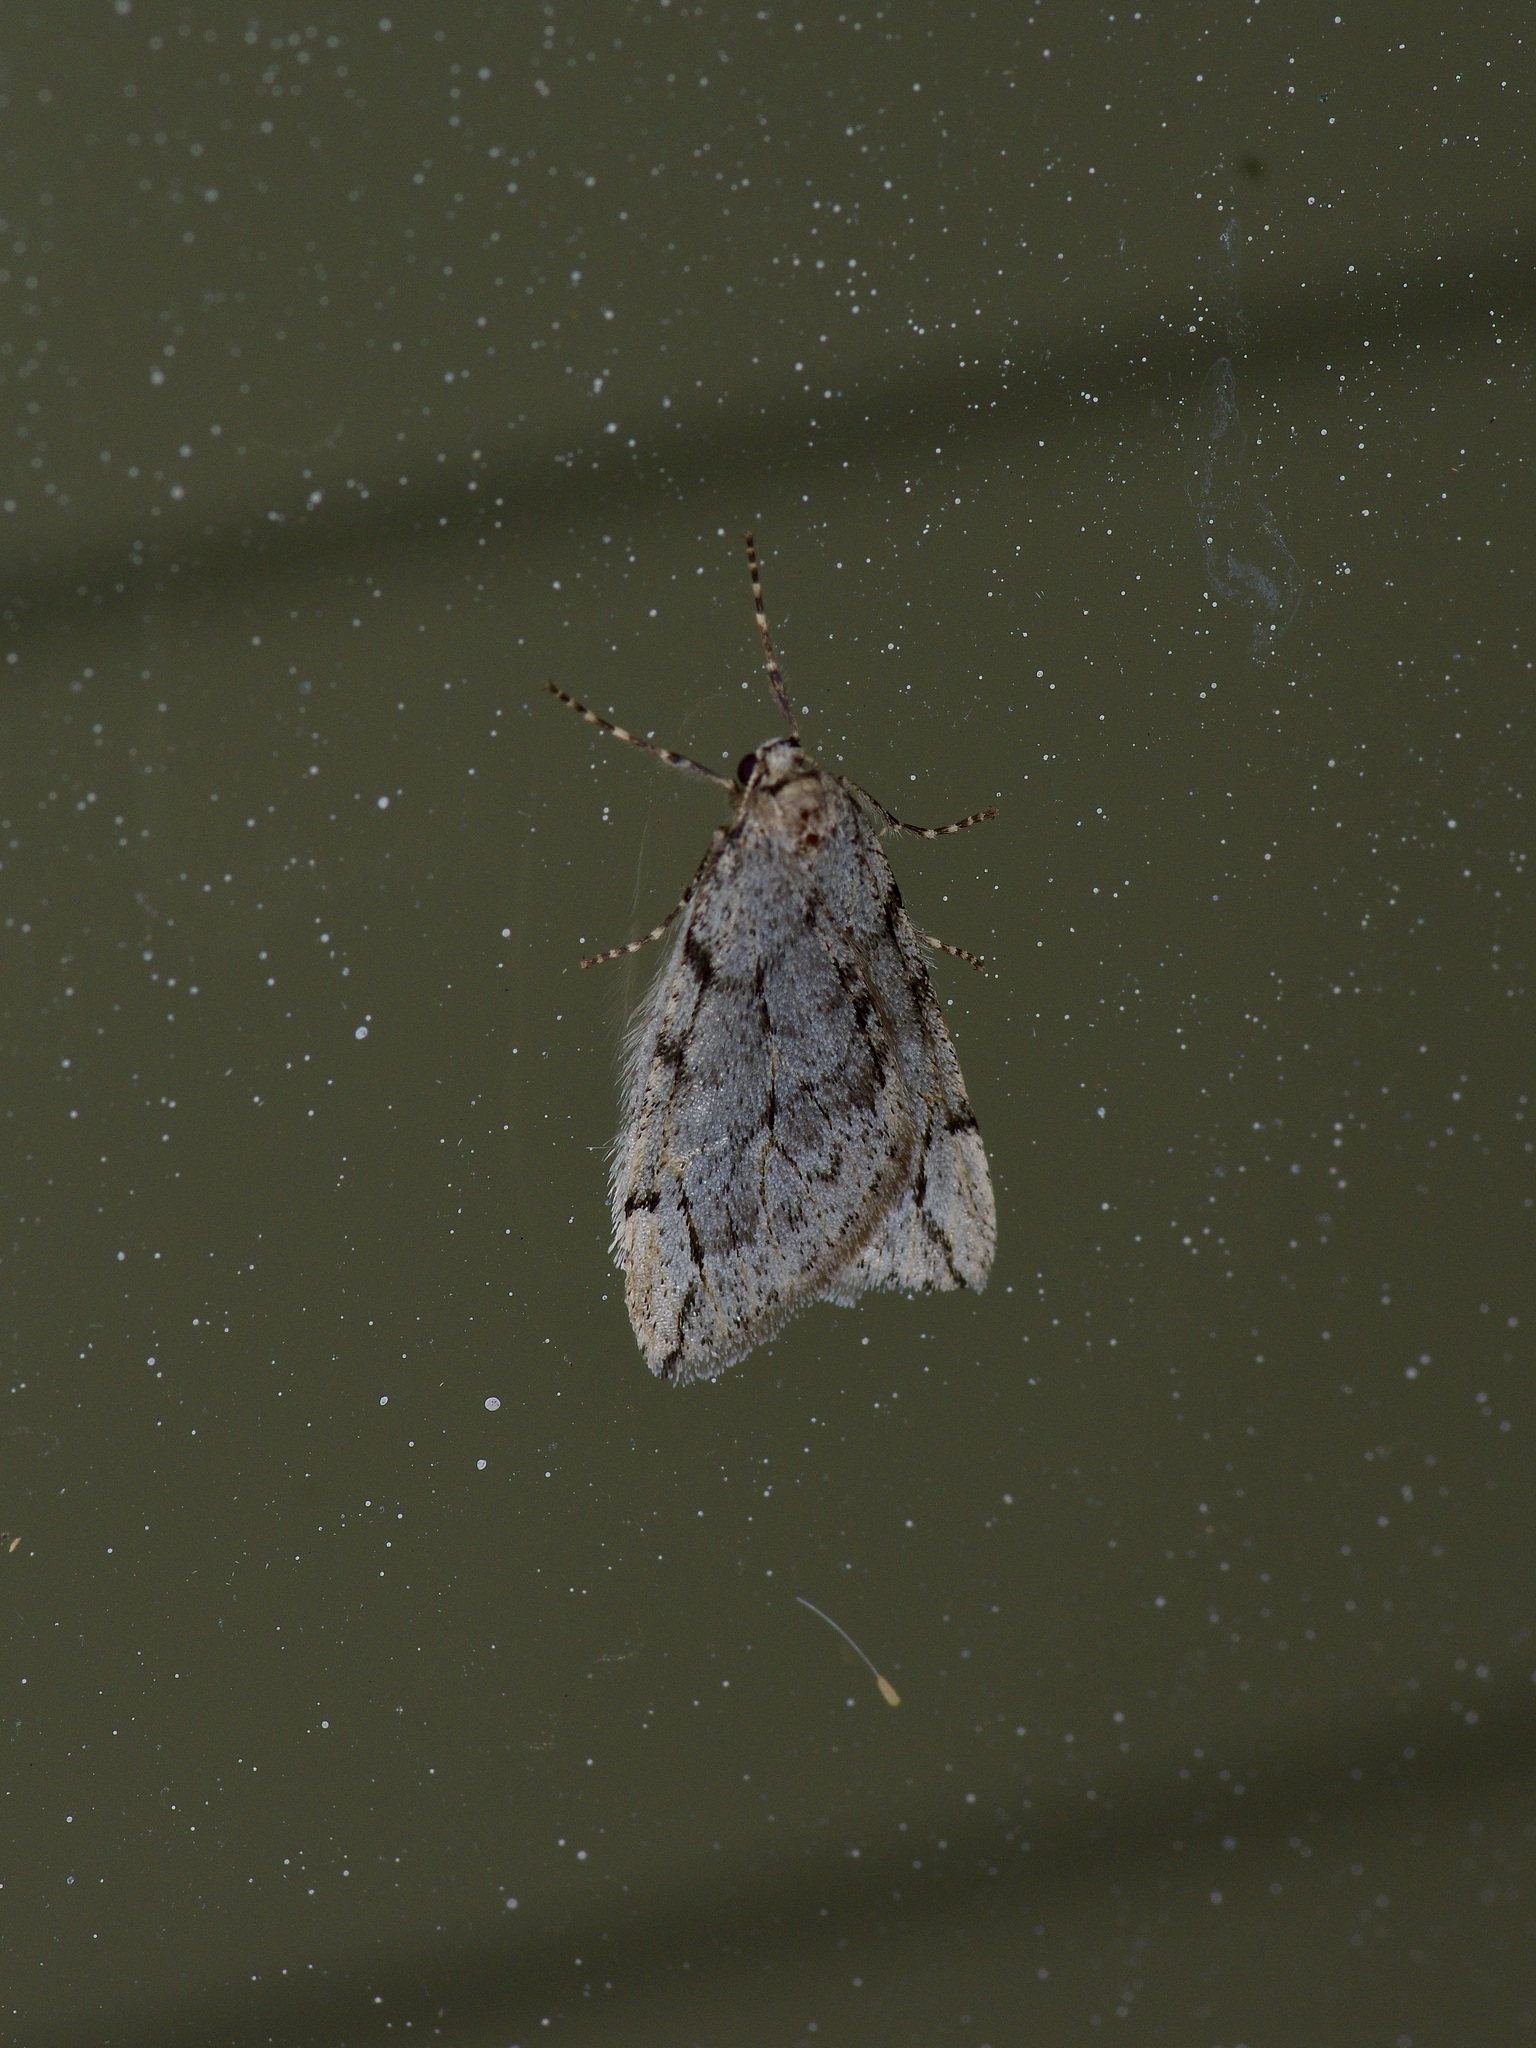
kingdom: Animalia
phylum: Arthropoda
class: Insecta
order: Lepidoptera
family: Geometridae
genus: Paleacrita
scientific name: Paleacrita vernata
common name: Spring cankerworm
